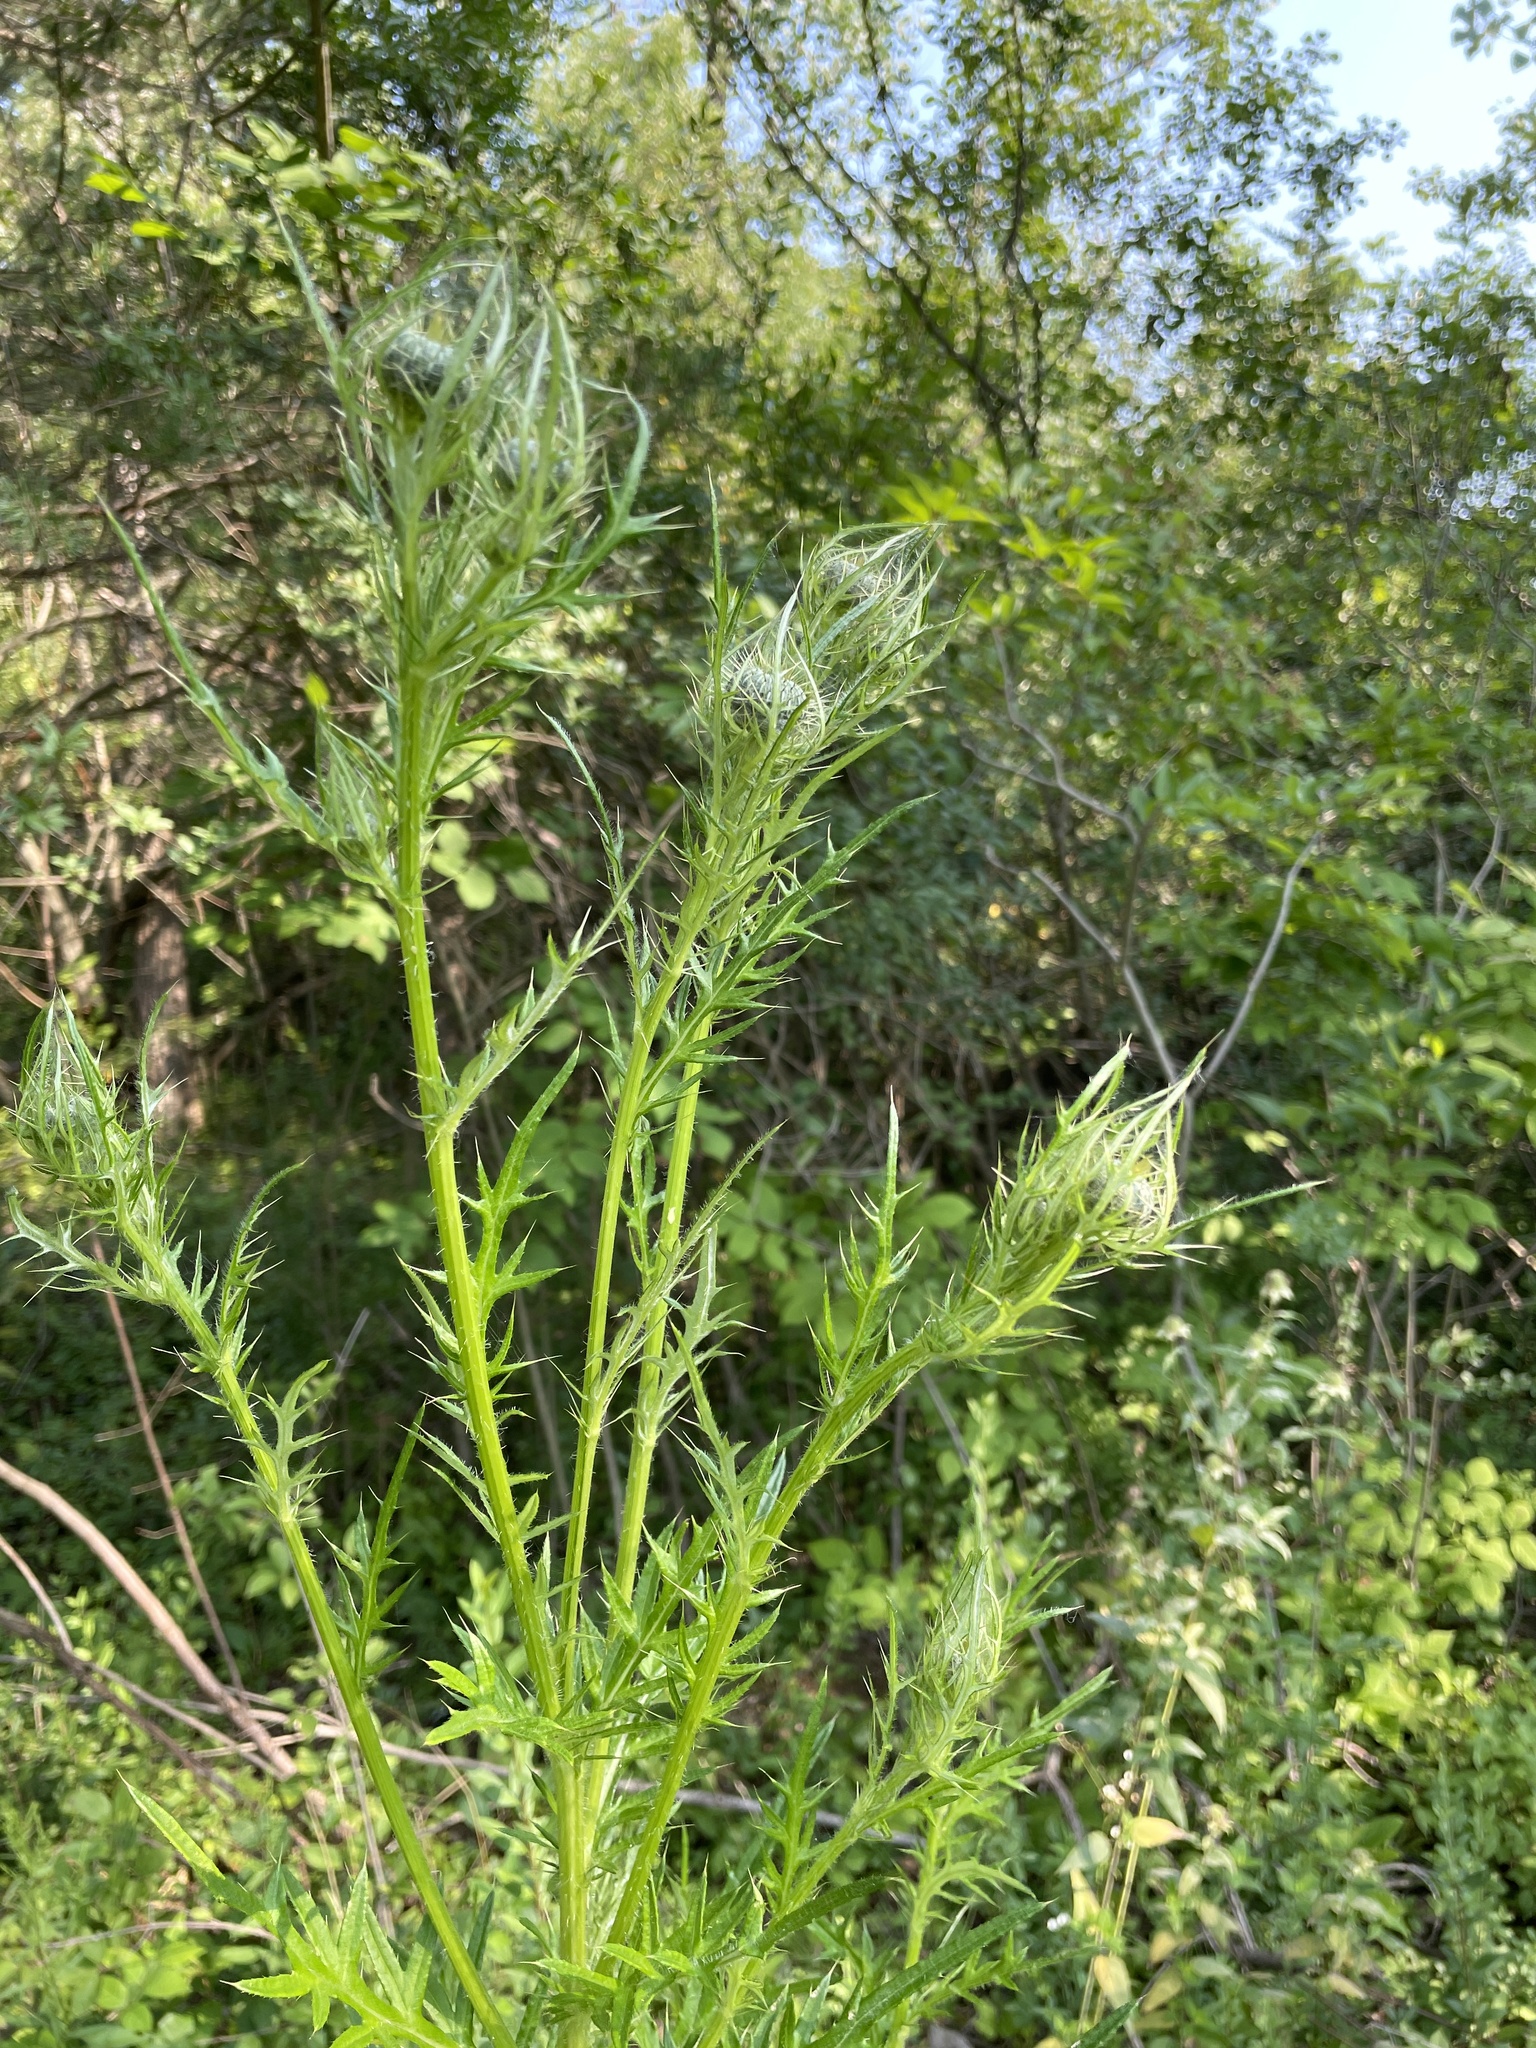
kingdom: Plantae
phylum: Tracheophyta
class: Magnoliopsida
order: Asterales
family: Asteraceae
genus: Cirsium
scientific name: Cirsium discolor
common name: Field thistle
